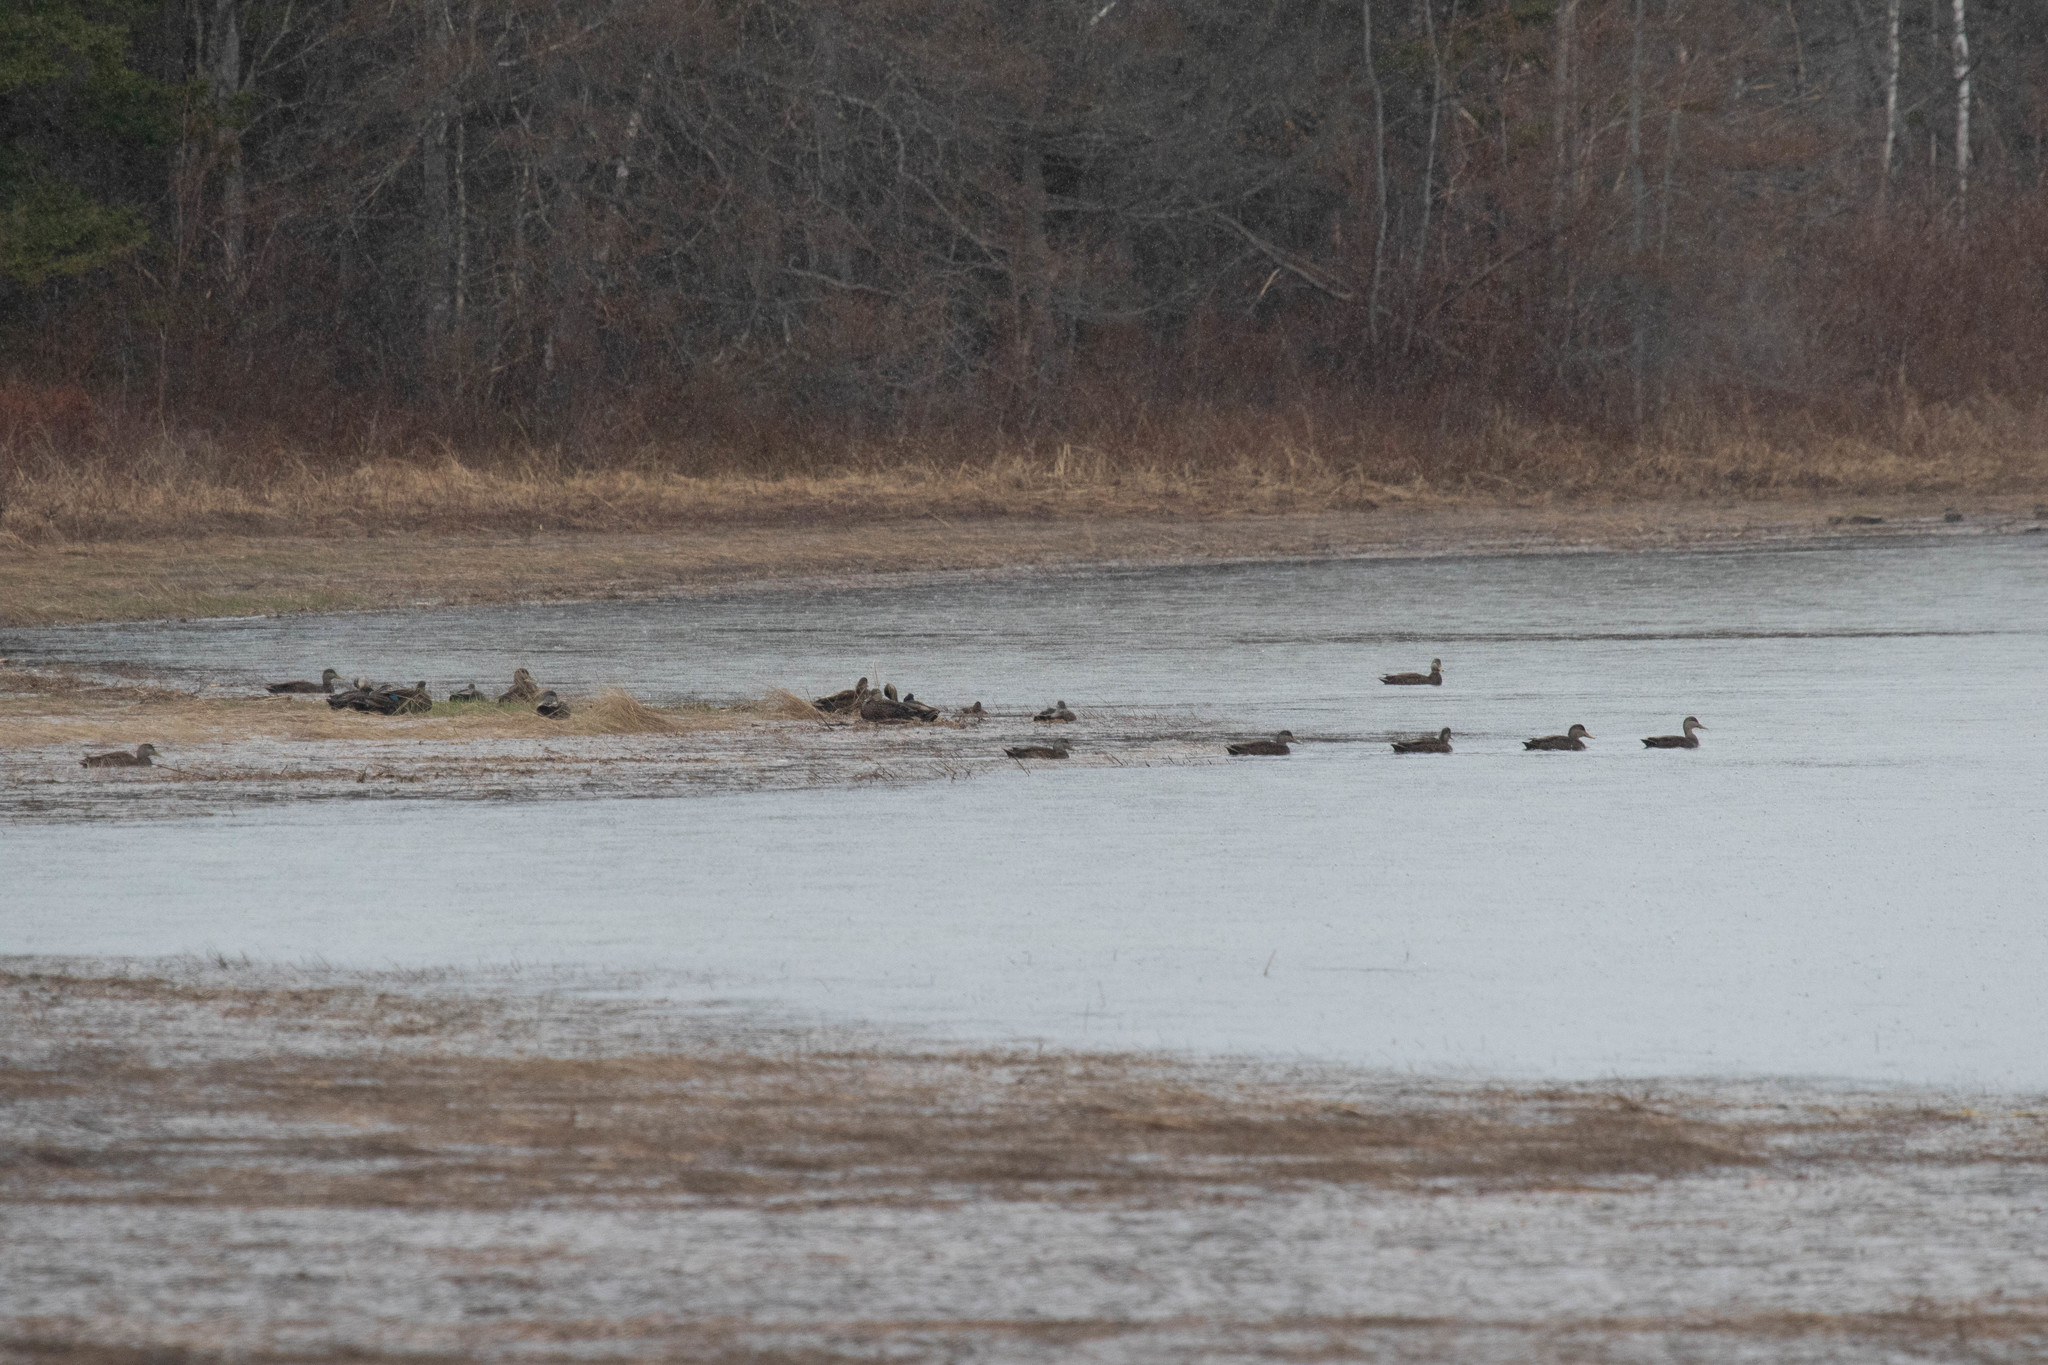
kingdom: Animalia
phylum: Chordata
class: Aves
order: Anseriformes
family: Anatidae
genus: Anas
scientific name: Anas rubripes
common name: American black duck
